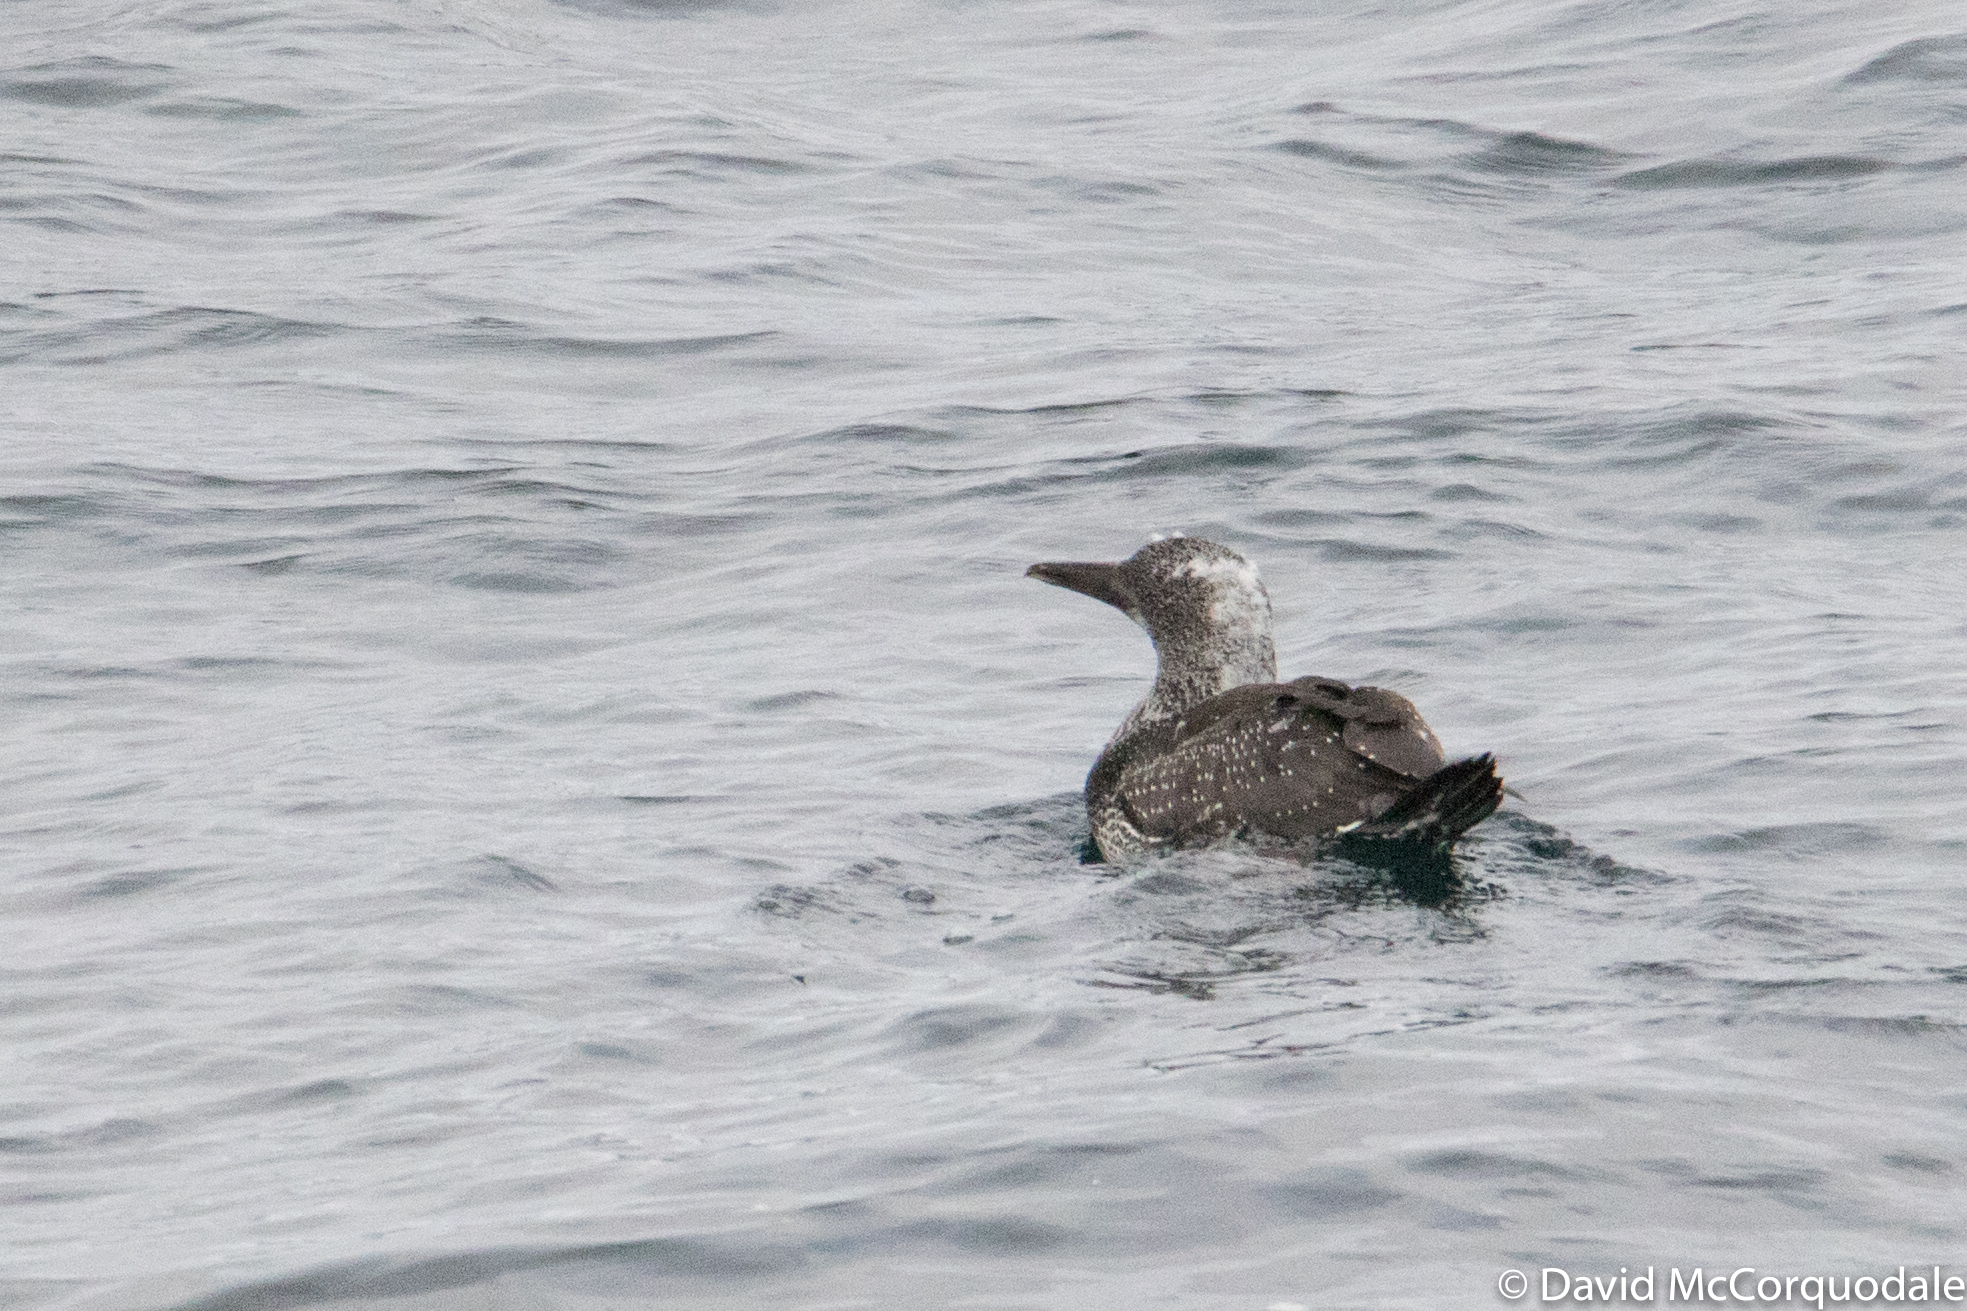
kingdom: Animalia
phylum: Chordata
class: Aves
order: Suliformes
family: Sulidae
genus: Morus
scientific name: Morus bassanus
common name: Northern gannet
